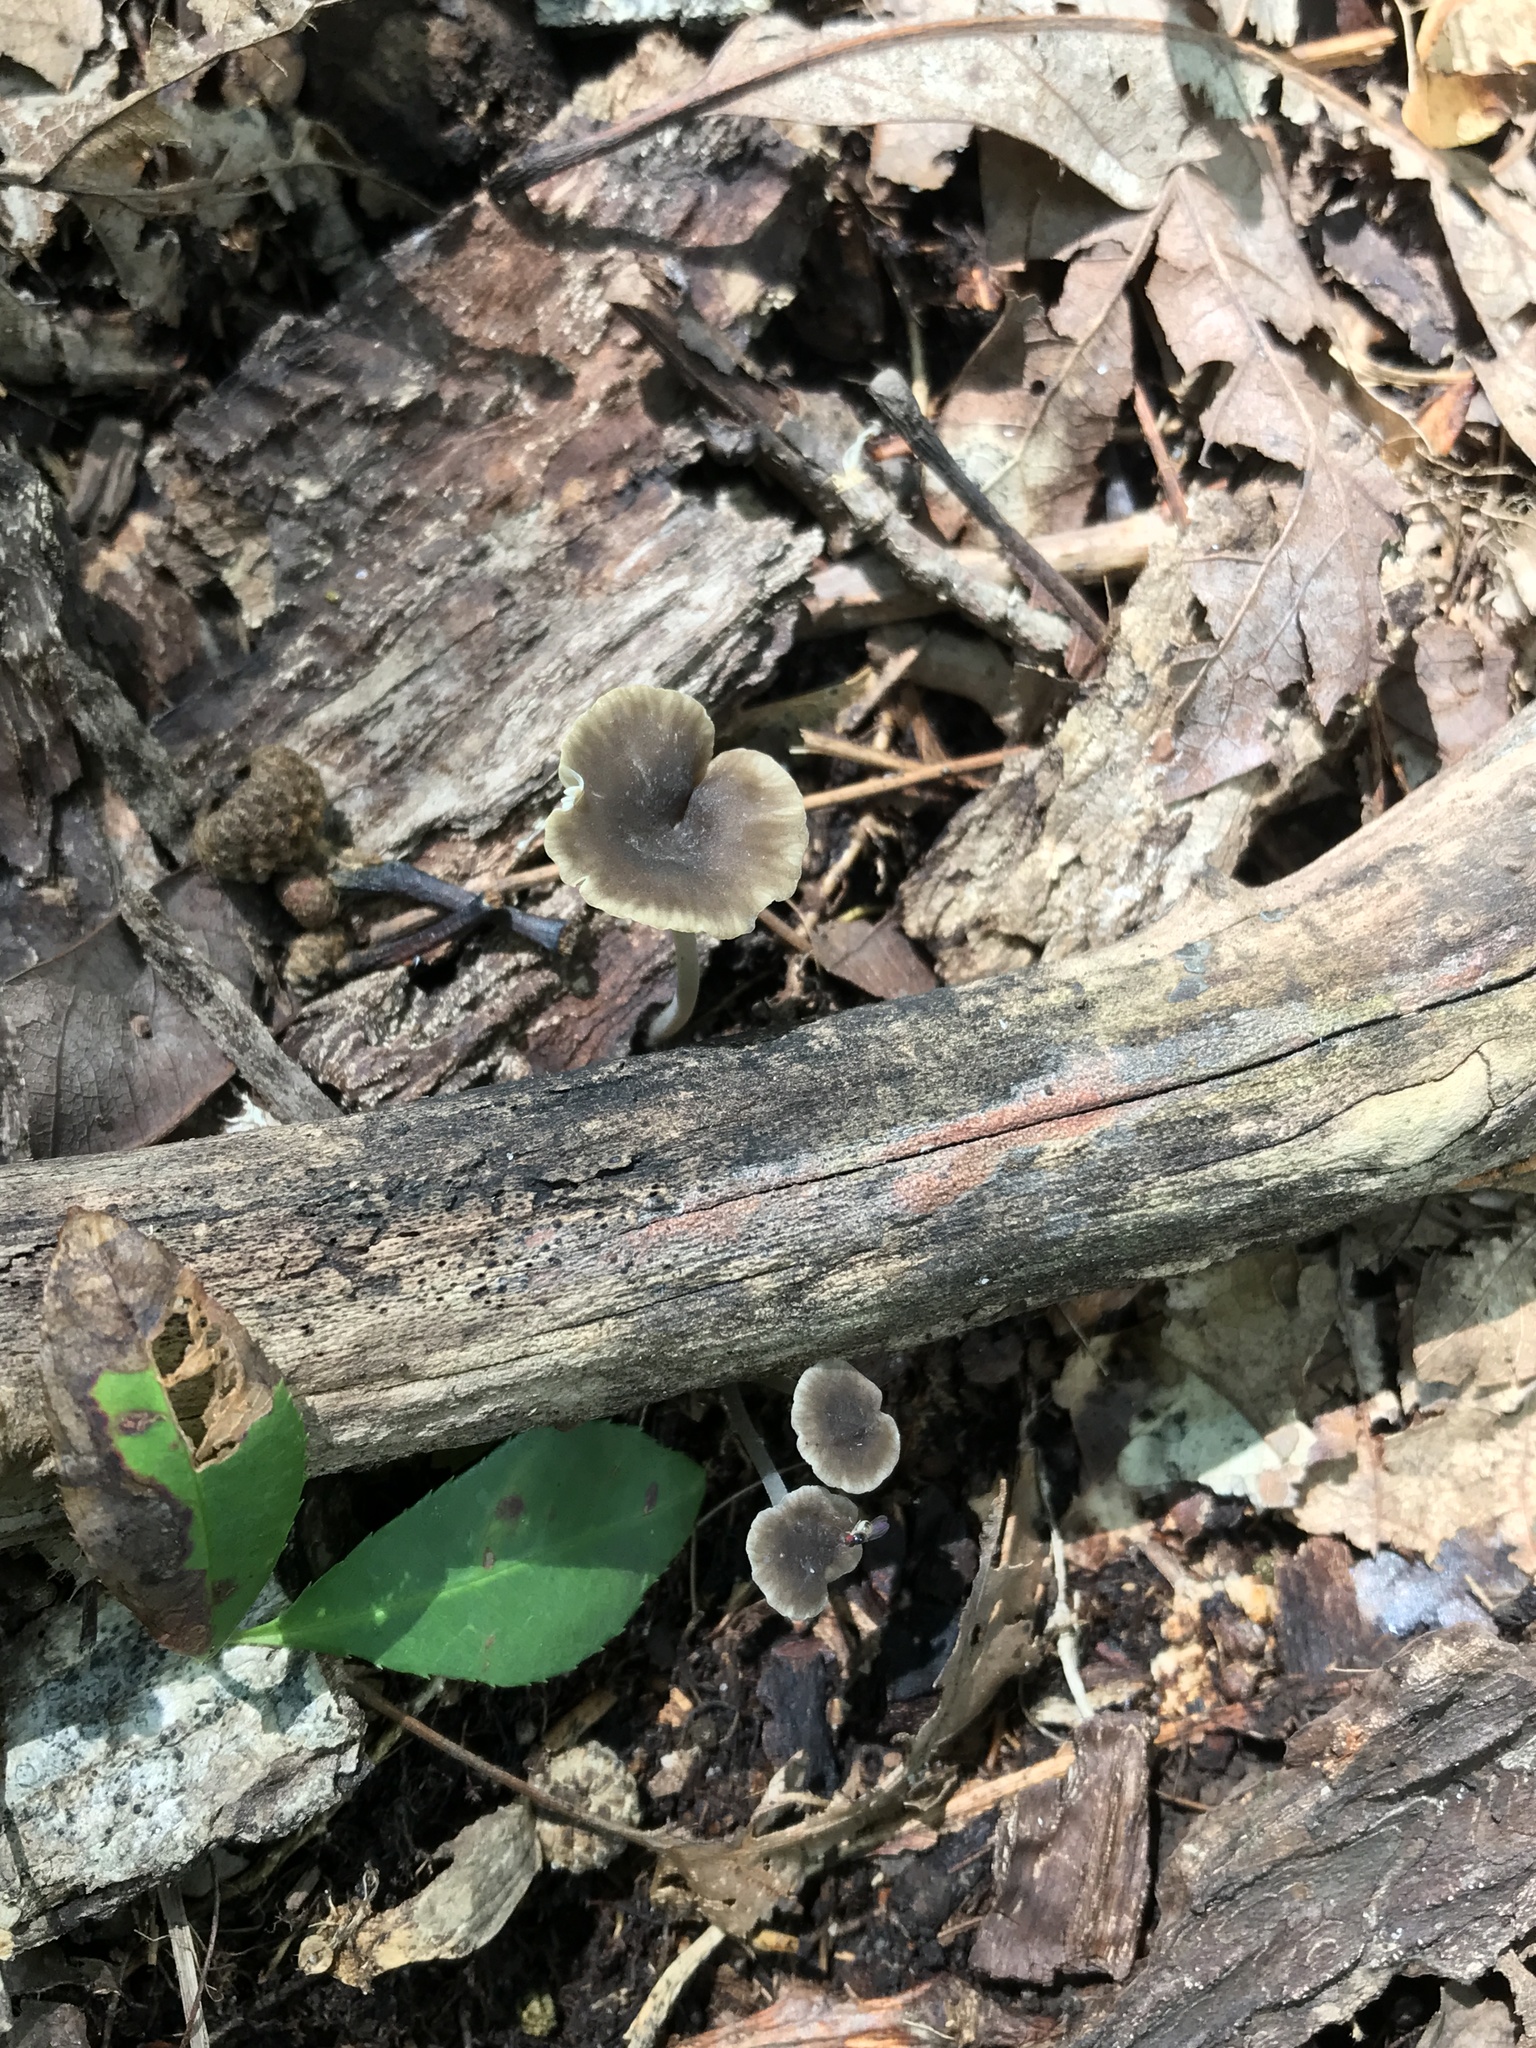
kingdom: Fungi
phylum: Basidiomycota
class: Agaricomycetes
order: Agaricales
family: Mycenaceae
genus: Hydropus
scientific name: Hydropus praedecurrens
